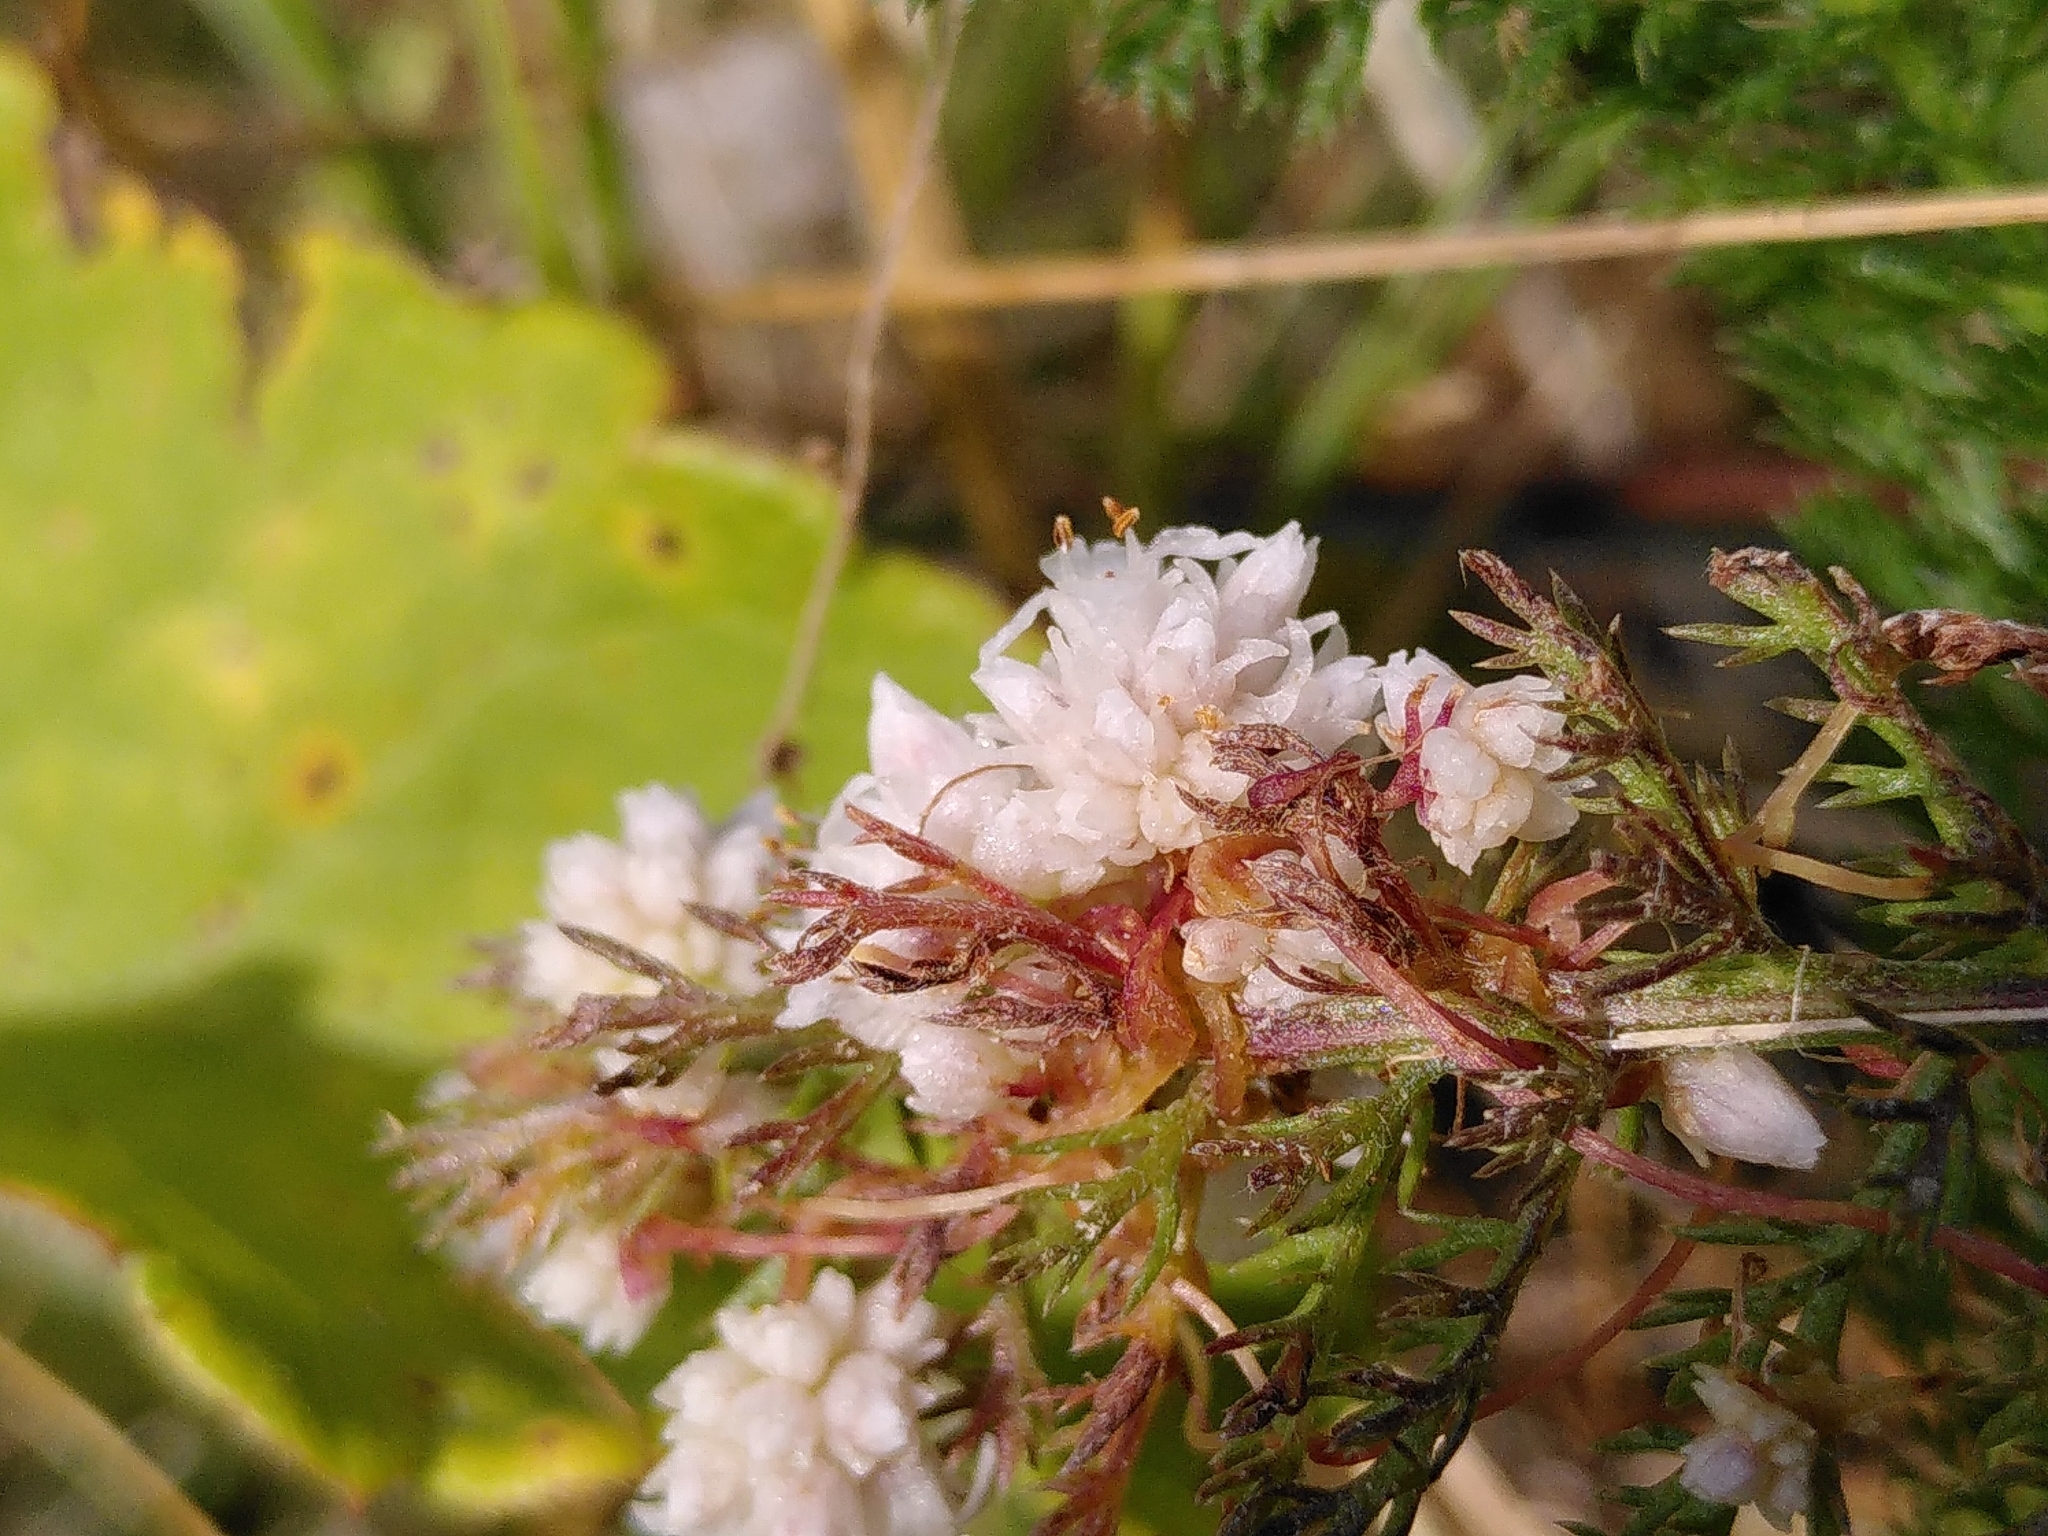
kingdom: Plantae
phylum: Tracheophyta
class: Magnoliopsida
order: Solanales
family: Convolvulaceae
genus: Cuscuta
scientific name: Cuscuta epithymum
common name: Clover dodder
